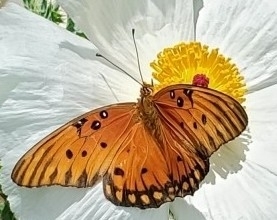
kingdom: Animalia
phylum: Arthropoda
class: Insecta
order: Lepidoptera
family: Nymphalidae
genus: Dione
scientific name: Dione vanillae
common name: Gulf fritillary
